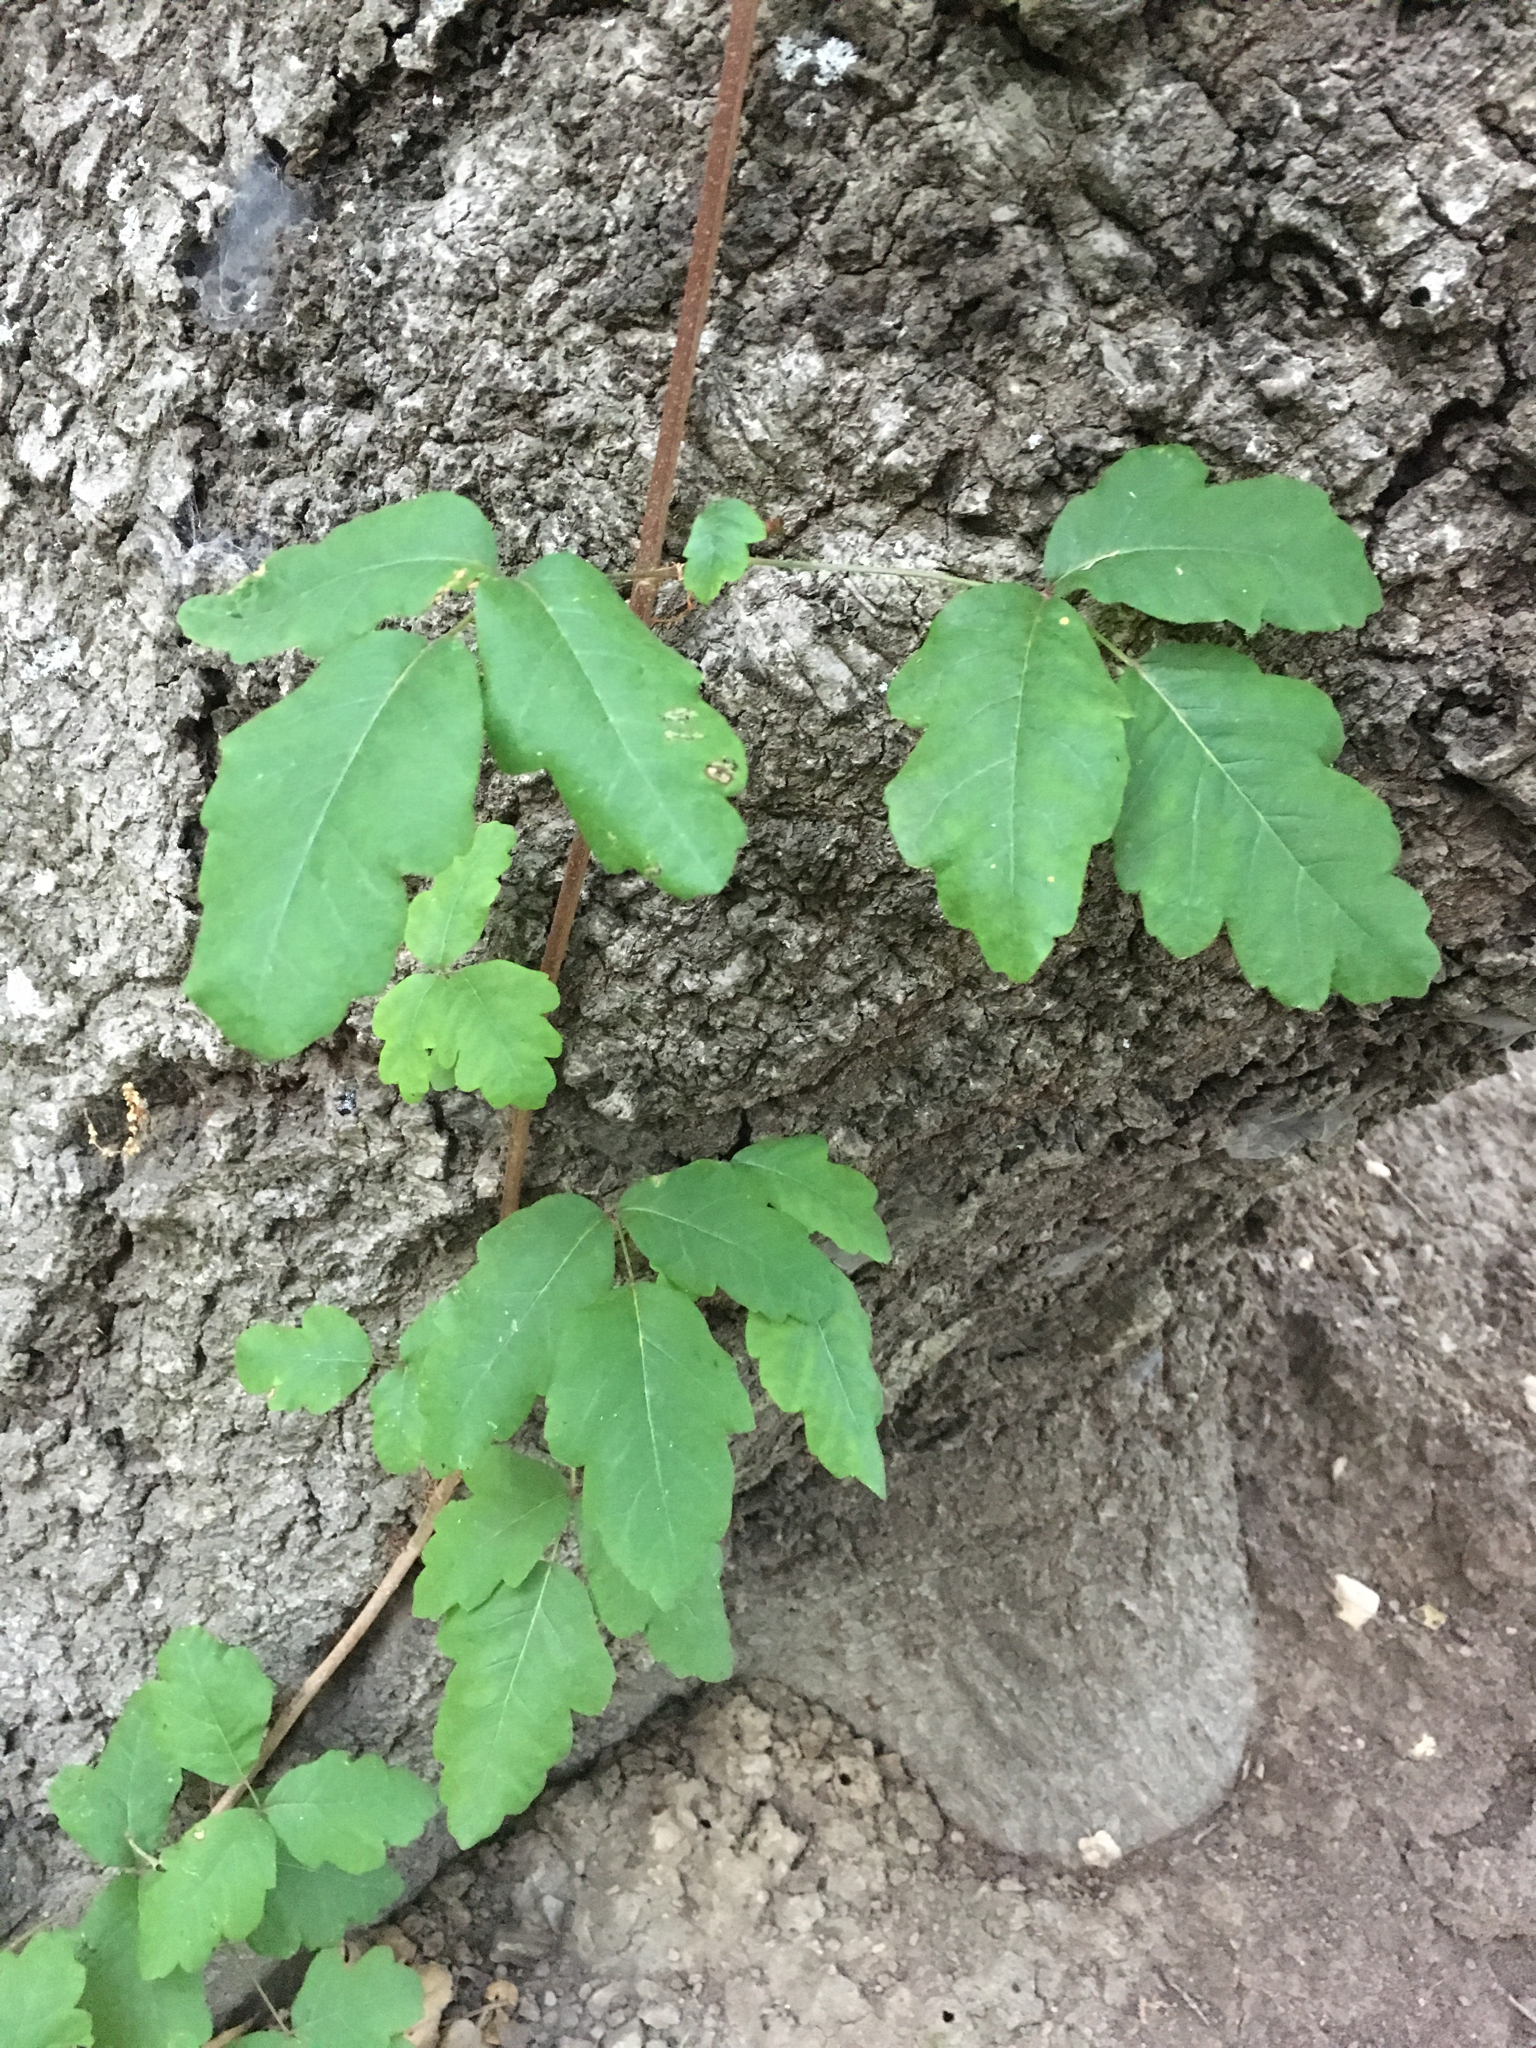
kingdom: Plantae
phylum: Tracheophyta
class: Magnoliopsida
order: Sapindales
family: Anacardiaceae
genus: Toxicodendron
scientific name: Toxicodendron diversilobum
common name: Pacific poison-oak
